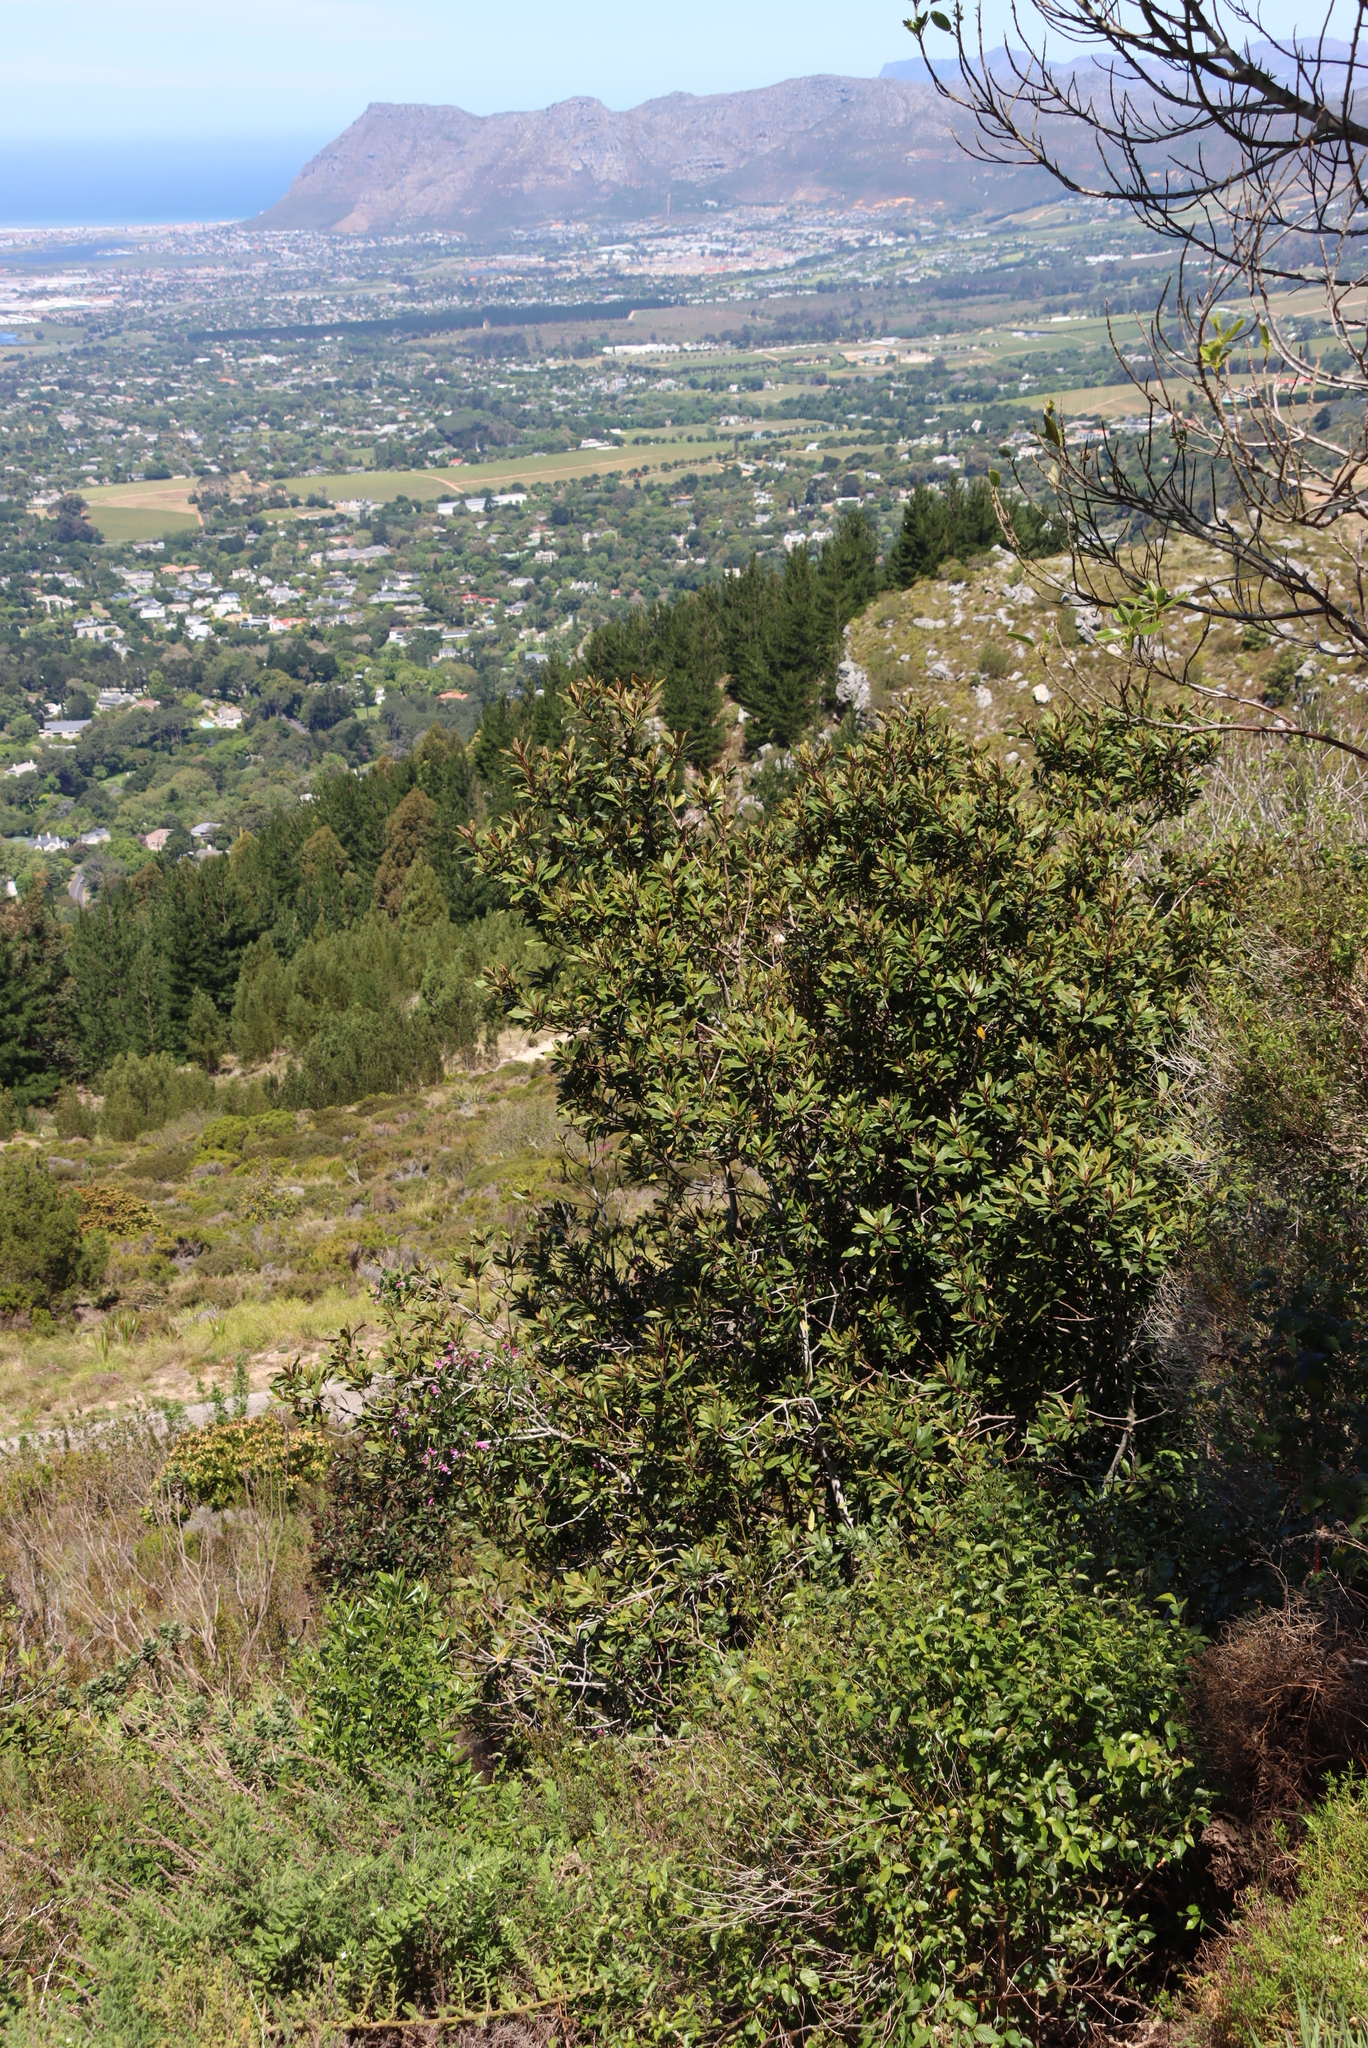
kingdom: Plantae
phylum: Tracheophyta
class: Magnoliopsida
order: Ericales
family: Primulaceae
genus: Myrsine
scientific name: Myrsine melanophloeos
